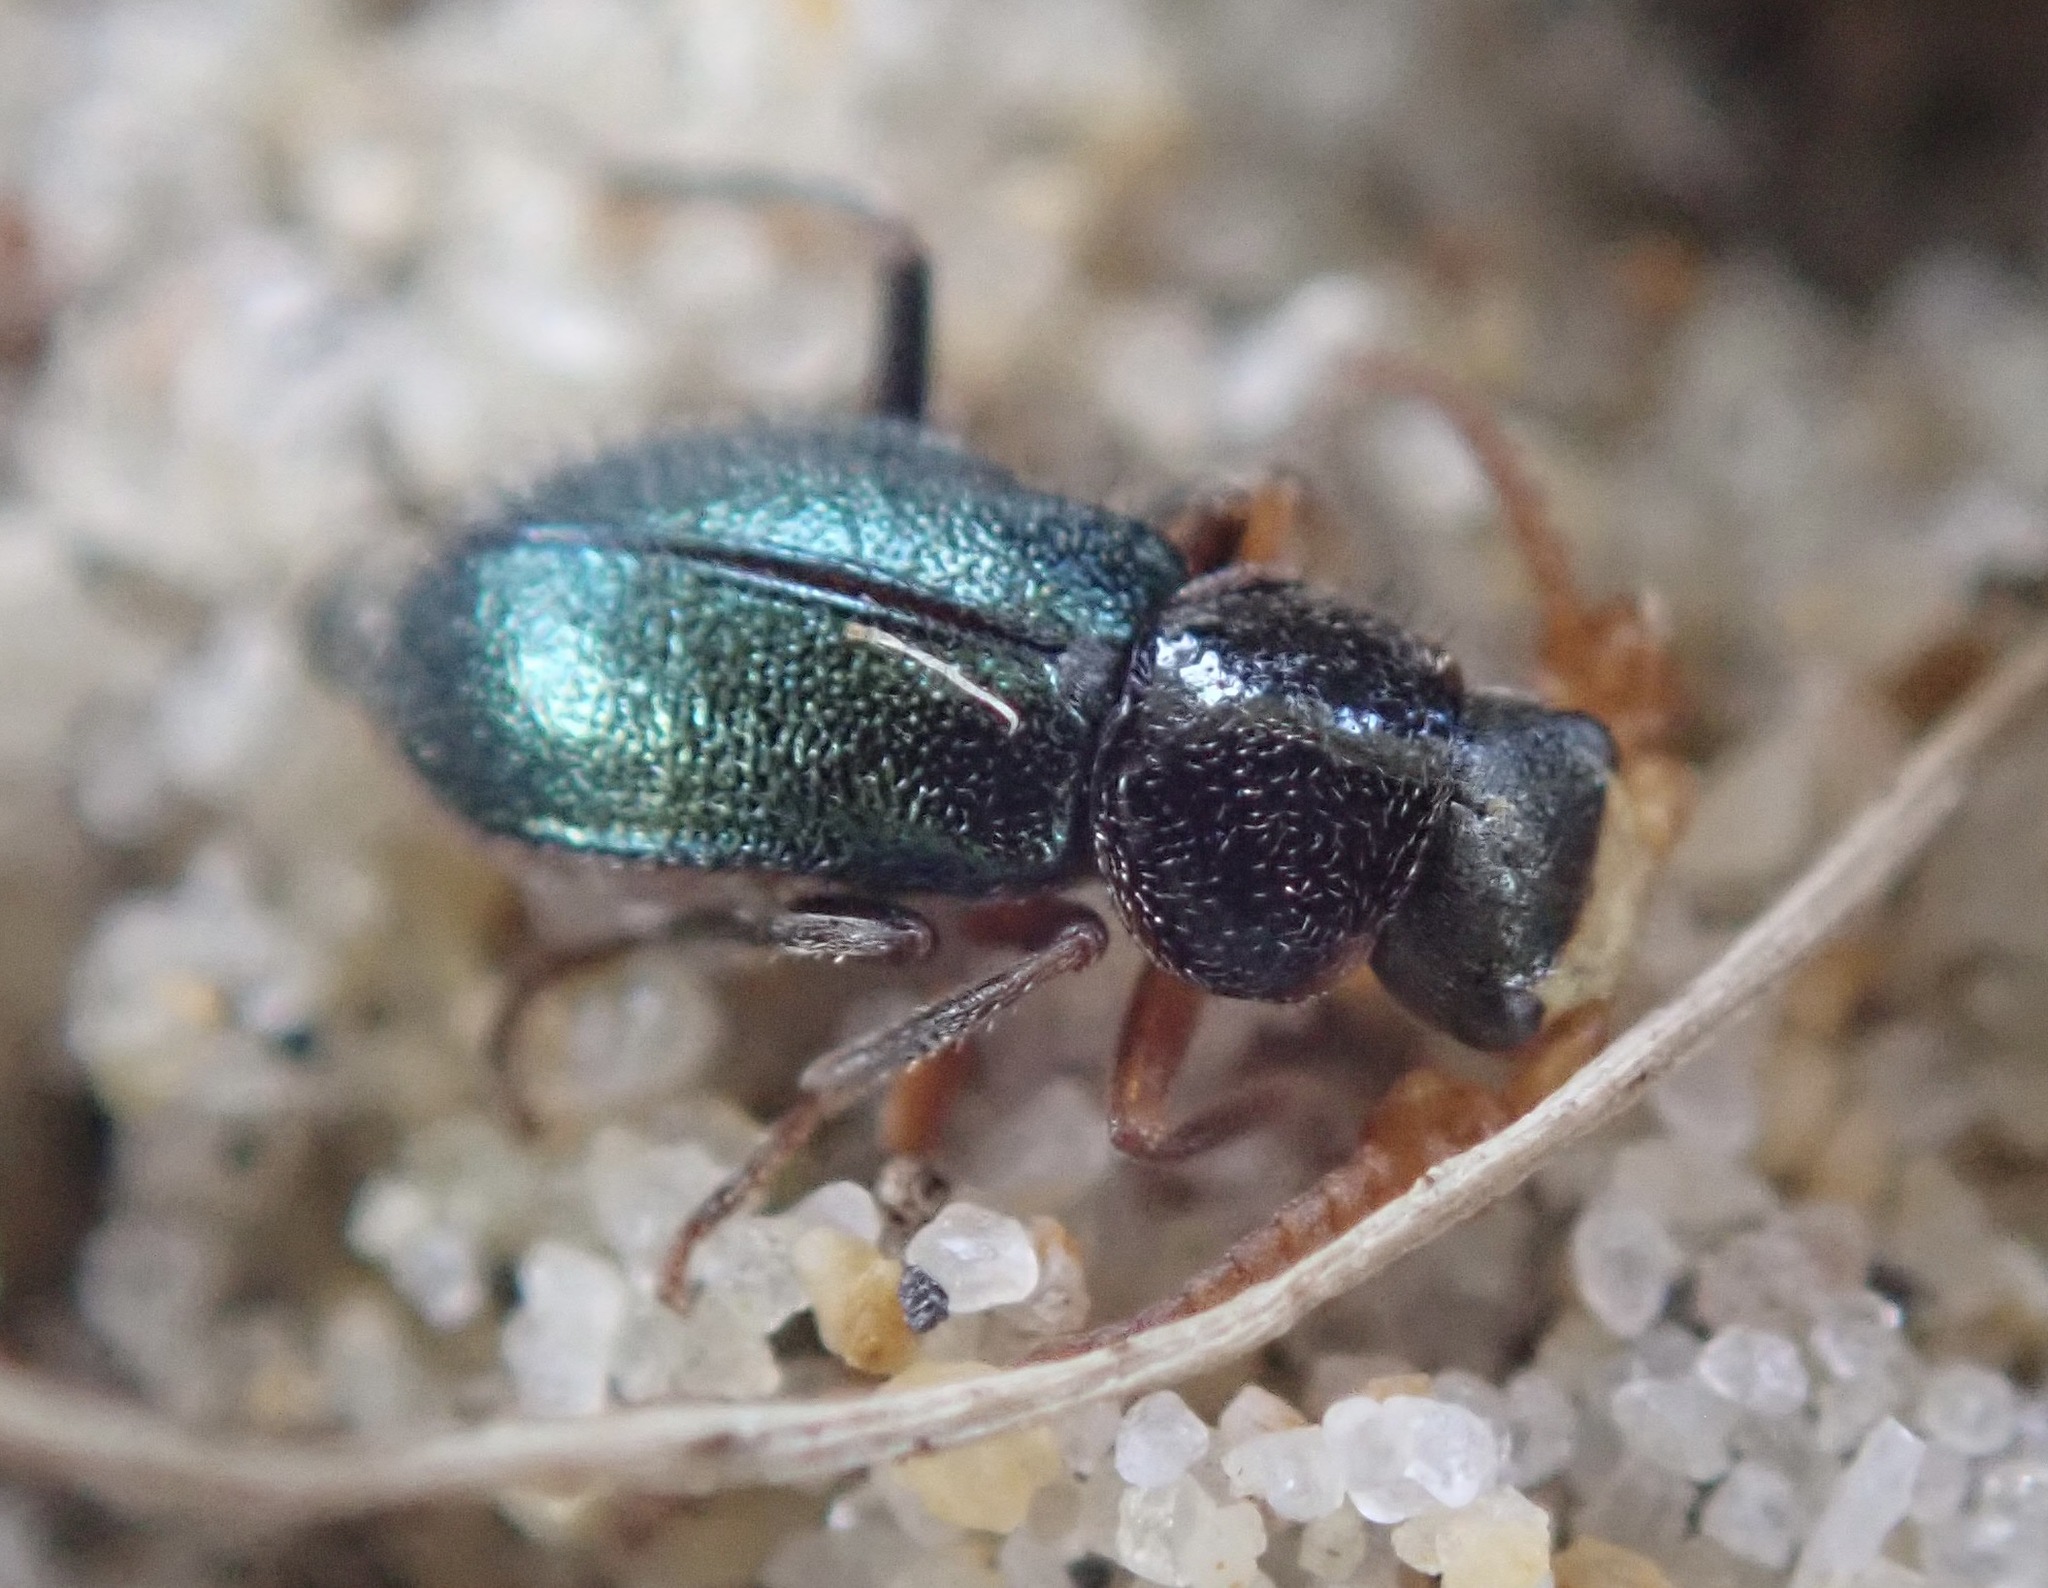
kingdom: Animalia
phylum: Arthropoda
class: Insecta
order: Coleoptera
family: Melyridae
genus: Collops
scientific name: Collops cribrosus
